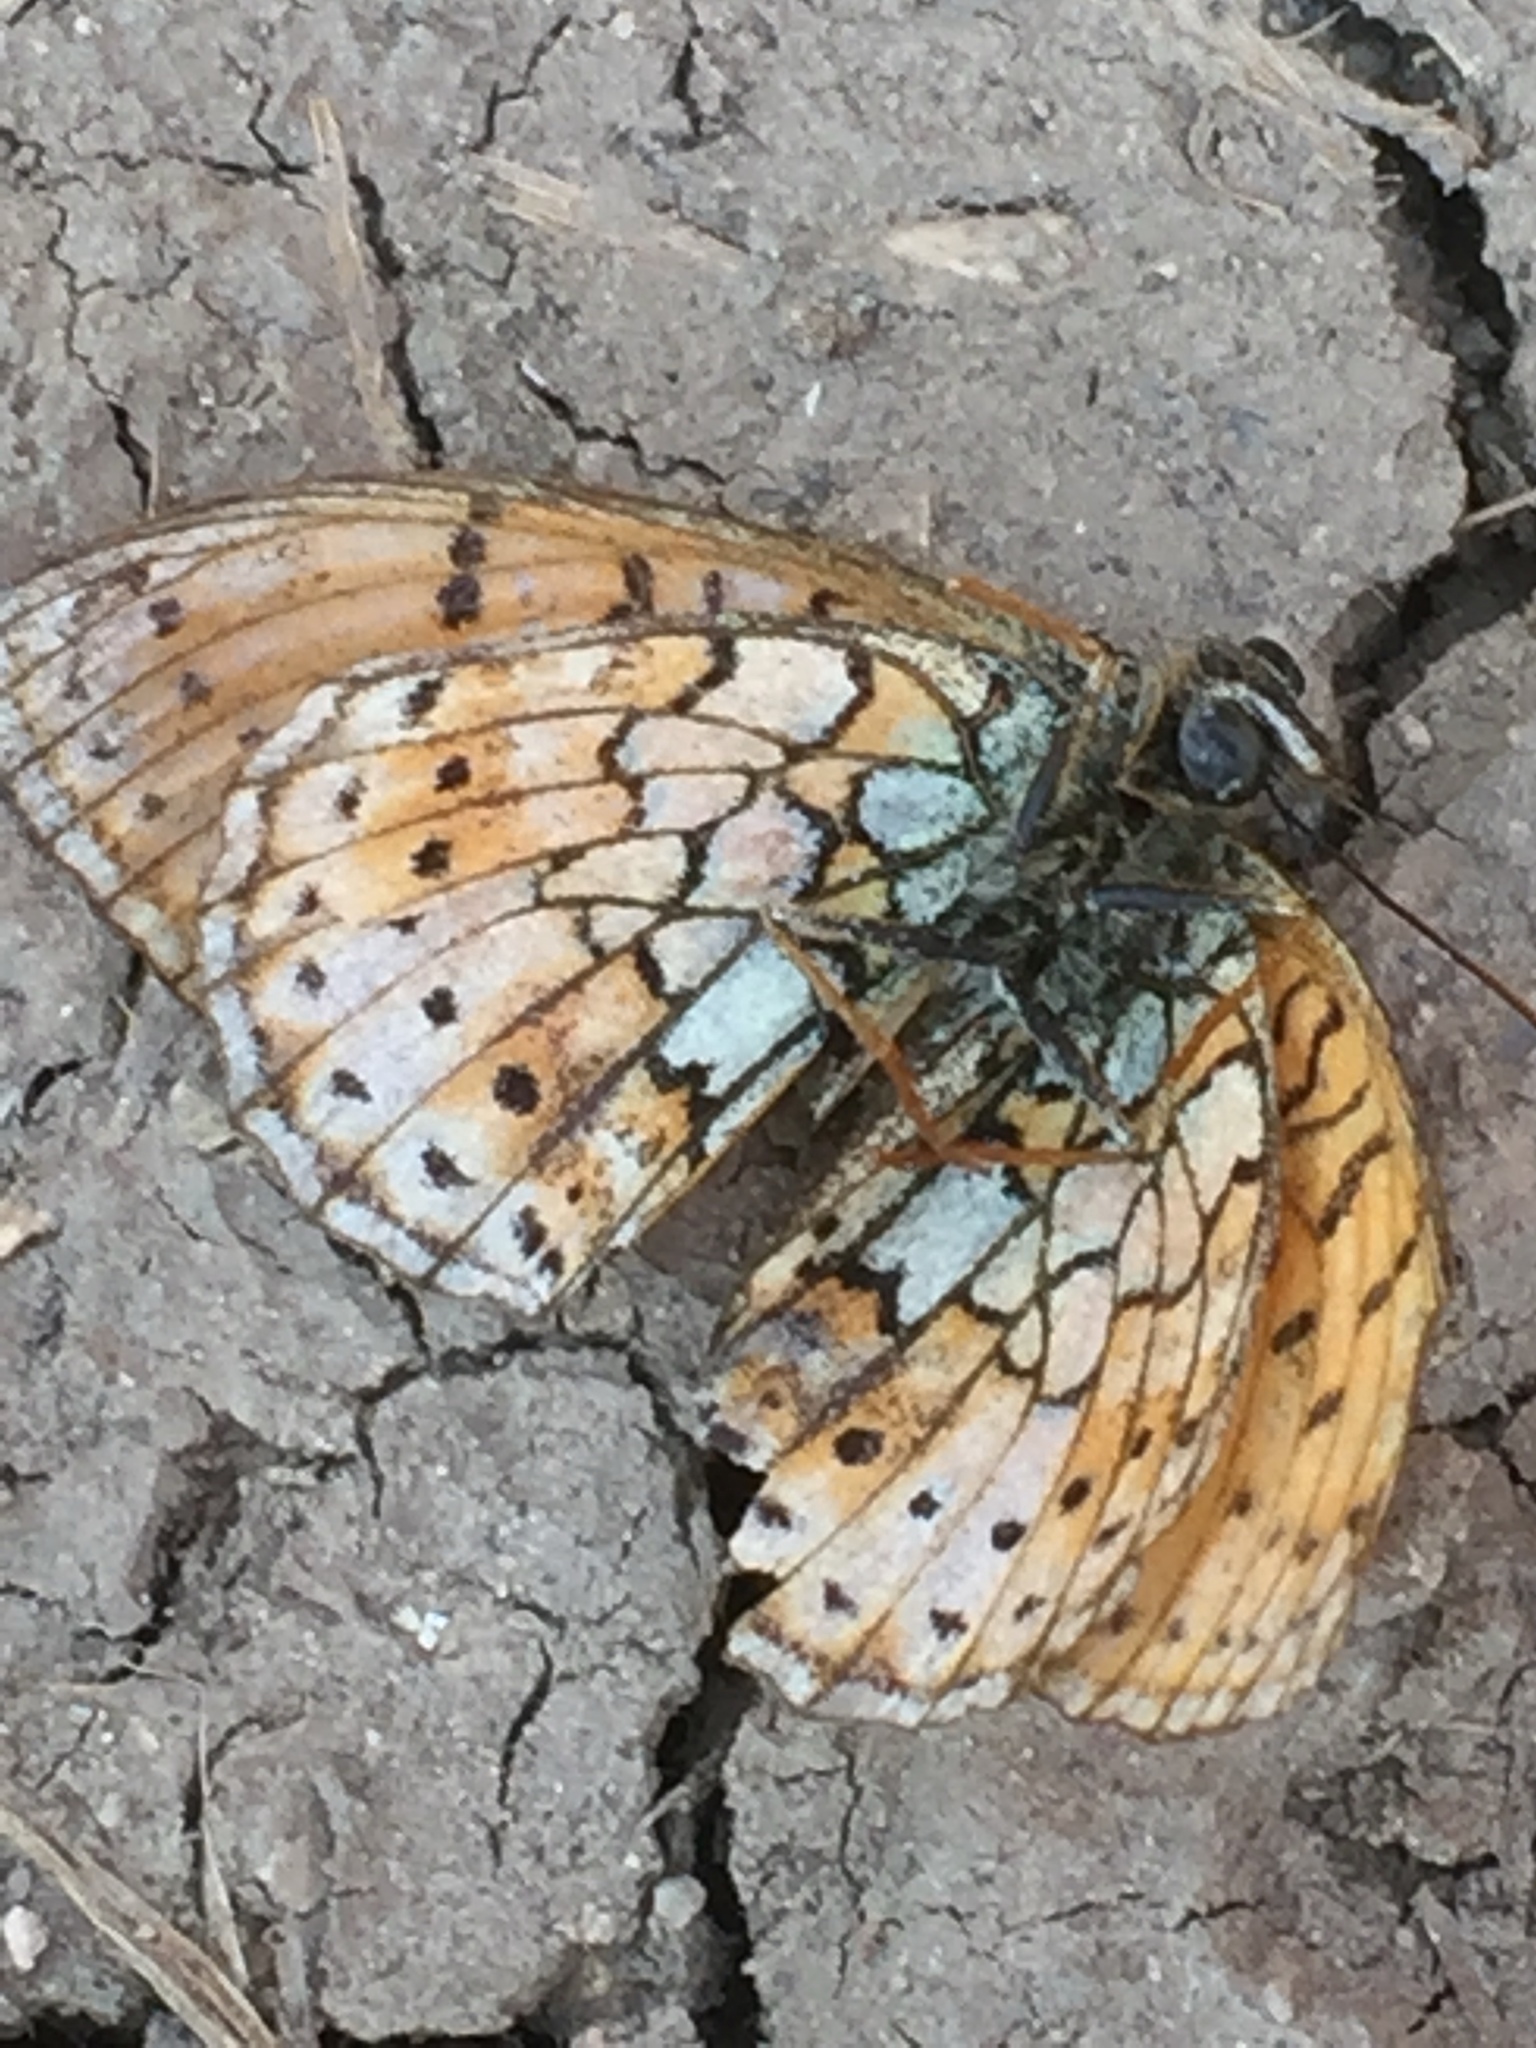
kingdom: Animalia
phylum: Arthropoda
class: Insecta
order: Lepidoptera
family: Nymphalidae
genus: Brenthis
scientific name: Brenthis hecate
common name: Twin-spot fritillary
